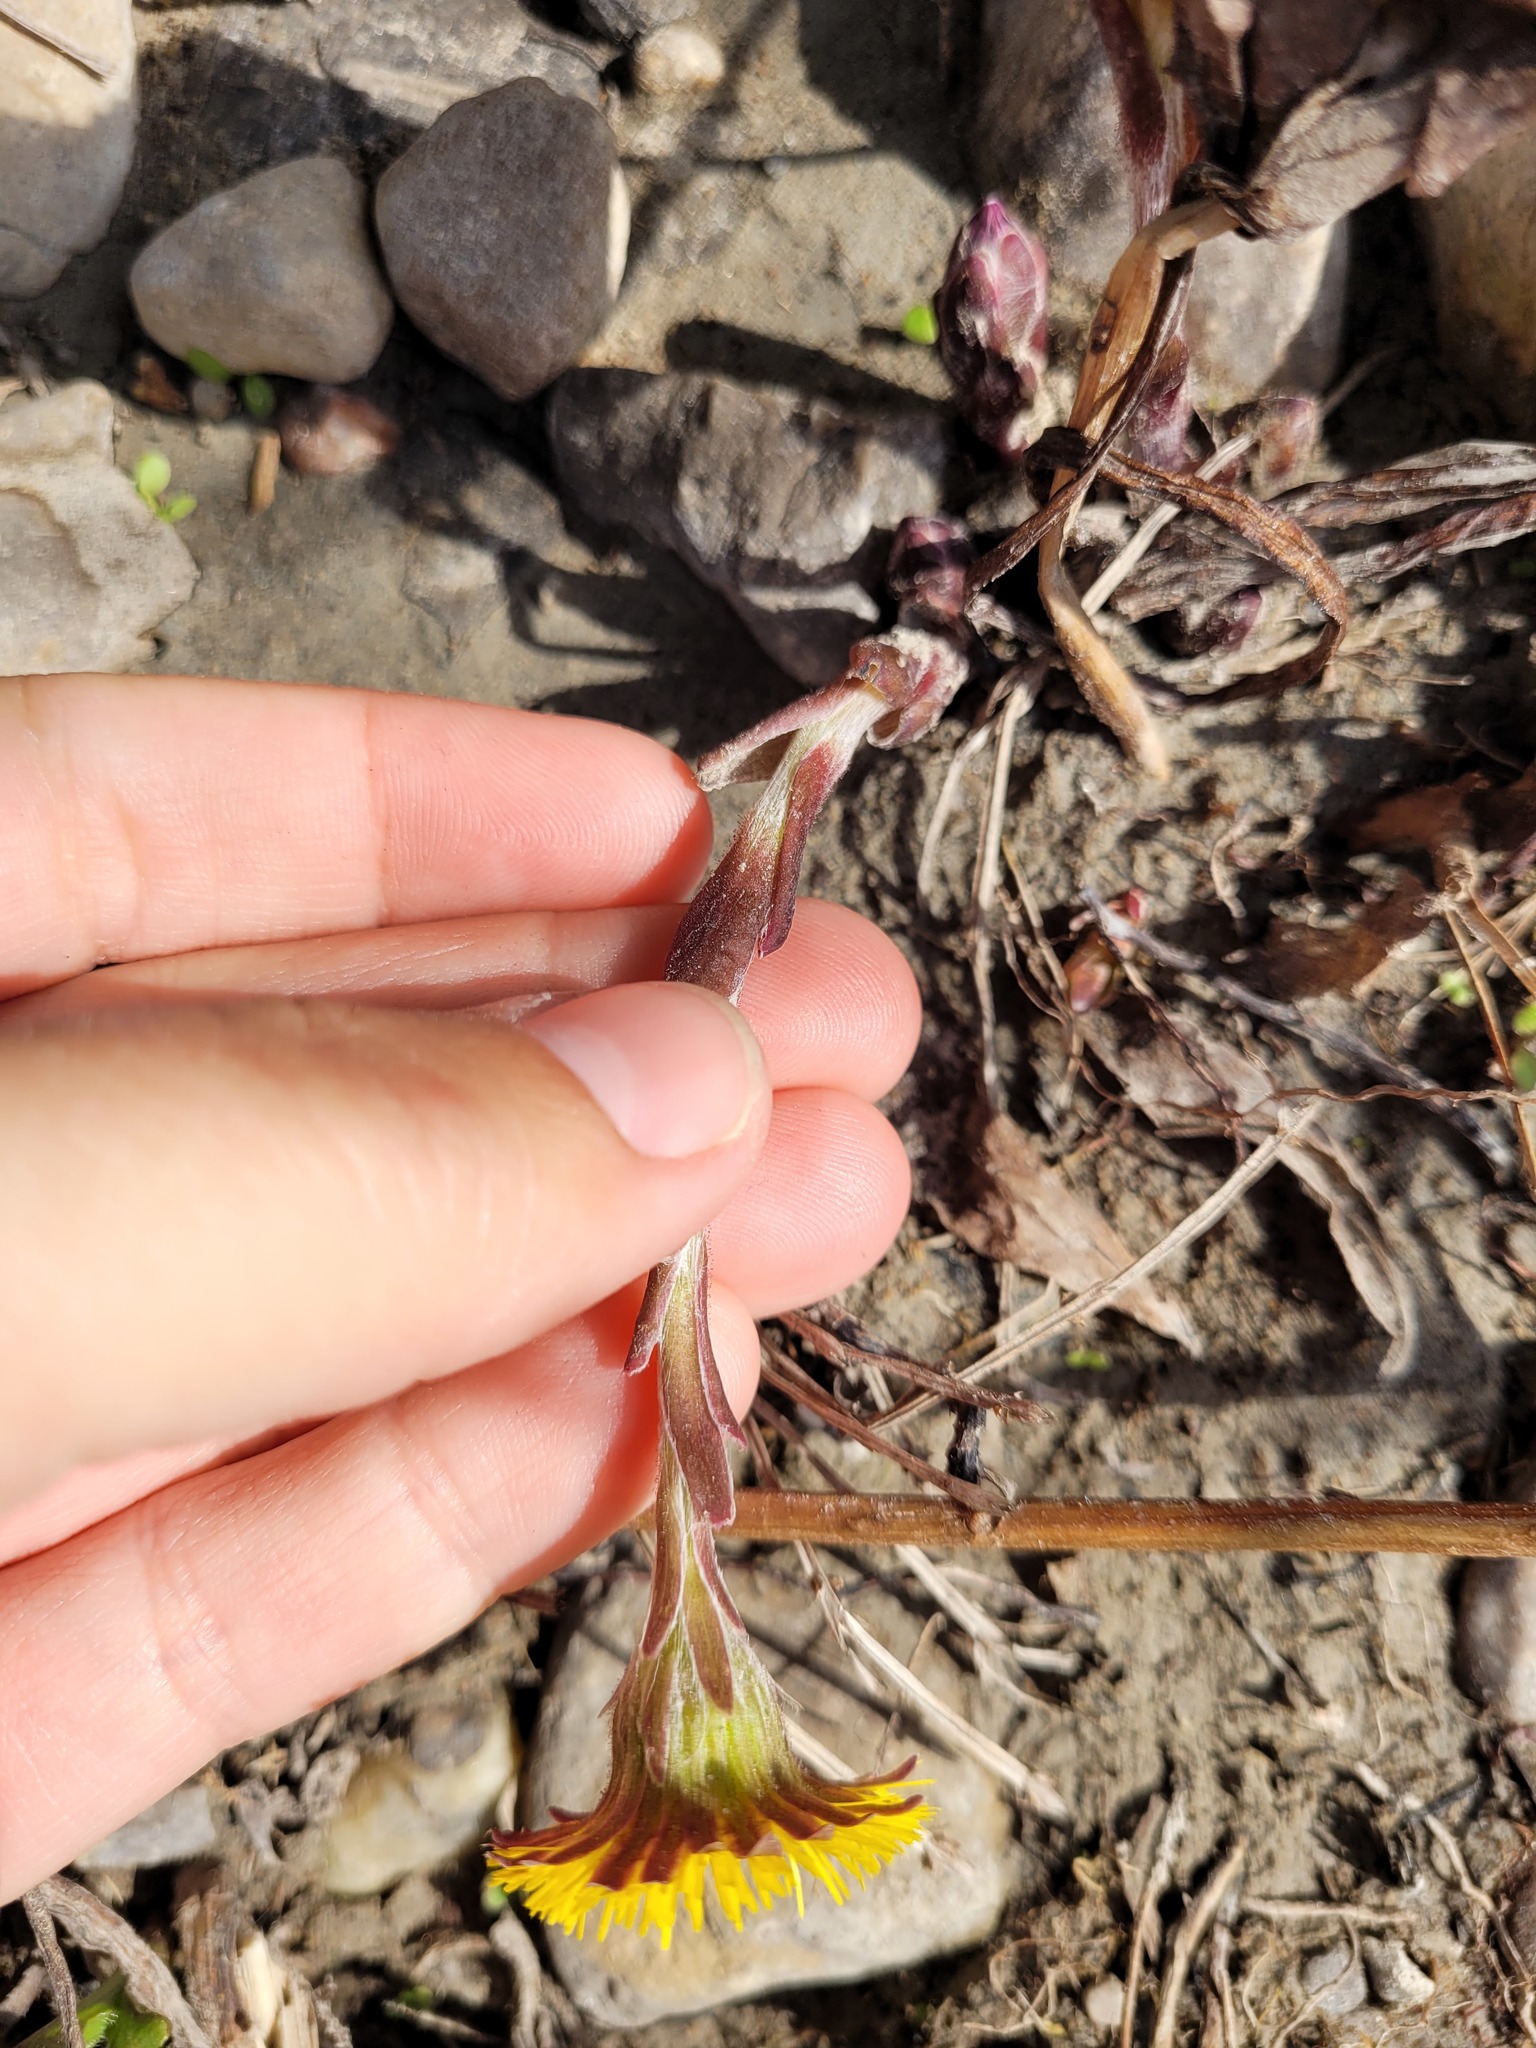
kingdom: Plantae
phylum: Tracheophyta
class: Magnoliopsida
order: Asterales
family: Asteraceae
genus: Tussilago
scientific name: Tussilago farfara
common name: Coltsfoot
